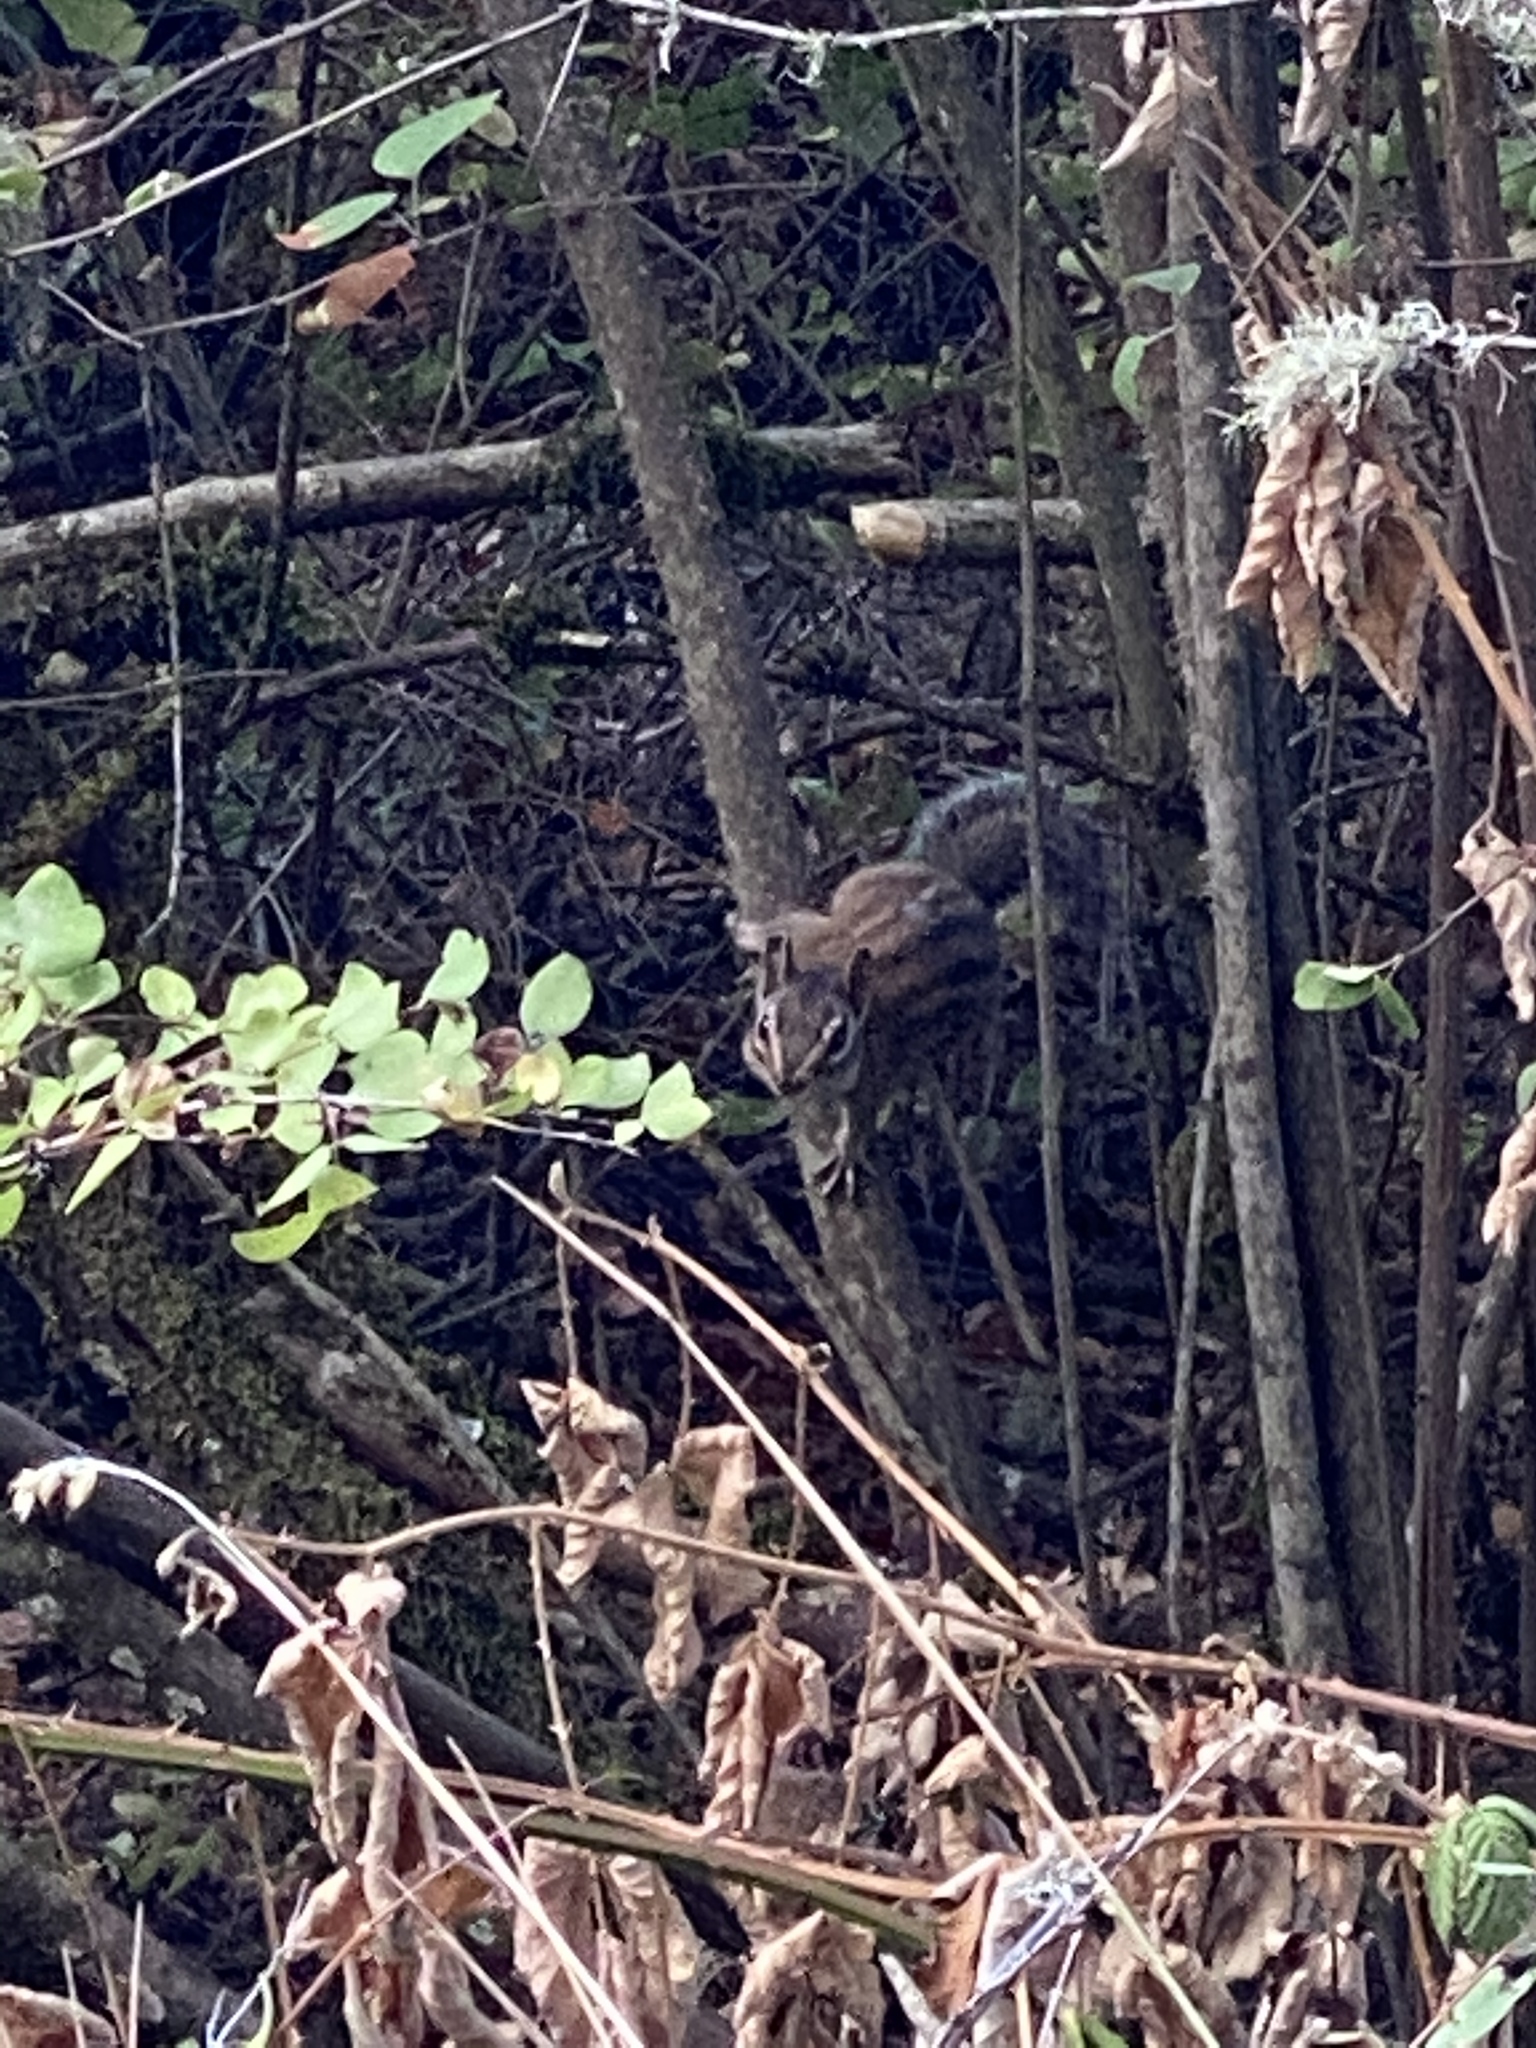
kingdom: Animalia
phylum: Chordata
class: Mammalia
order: Rodentia
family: Sciuridae
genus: Tamias
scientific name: Tamias townsendii
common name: Townsend's chipmunk
